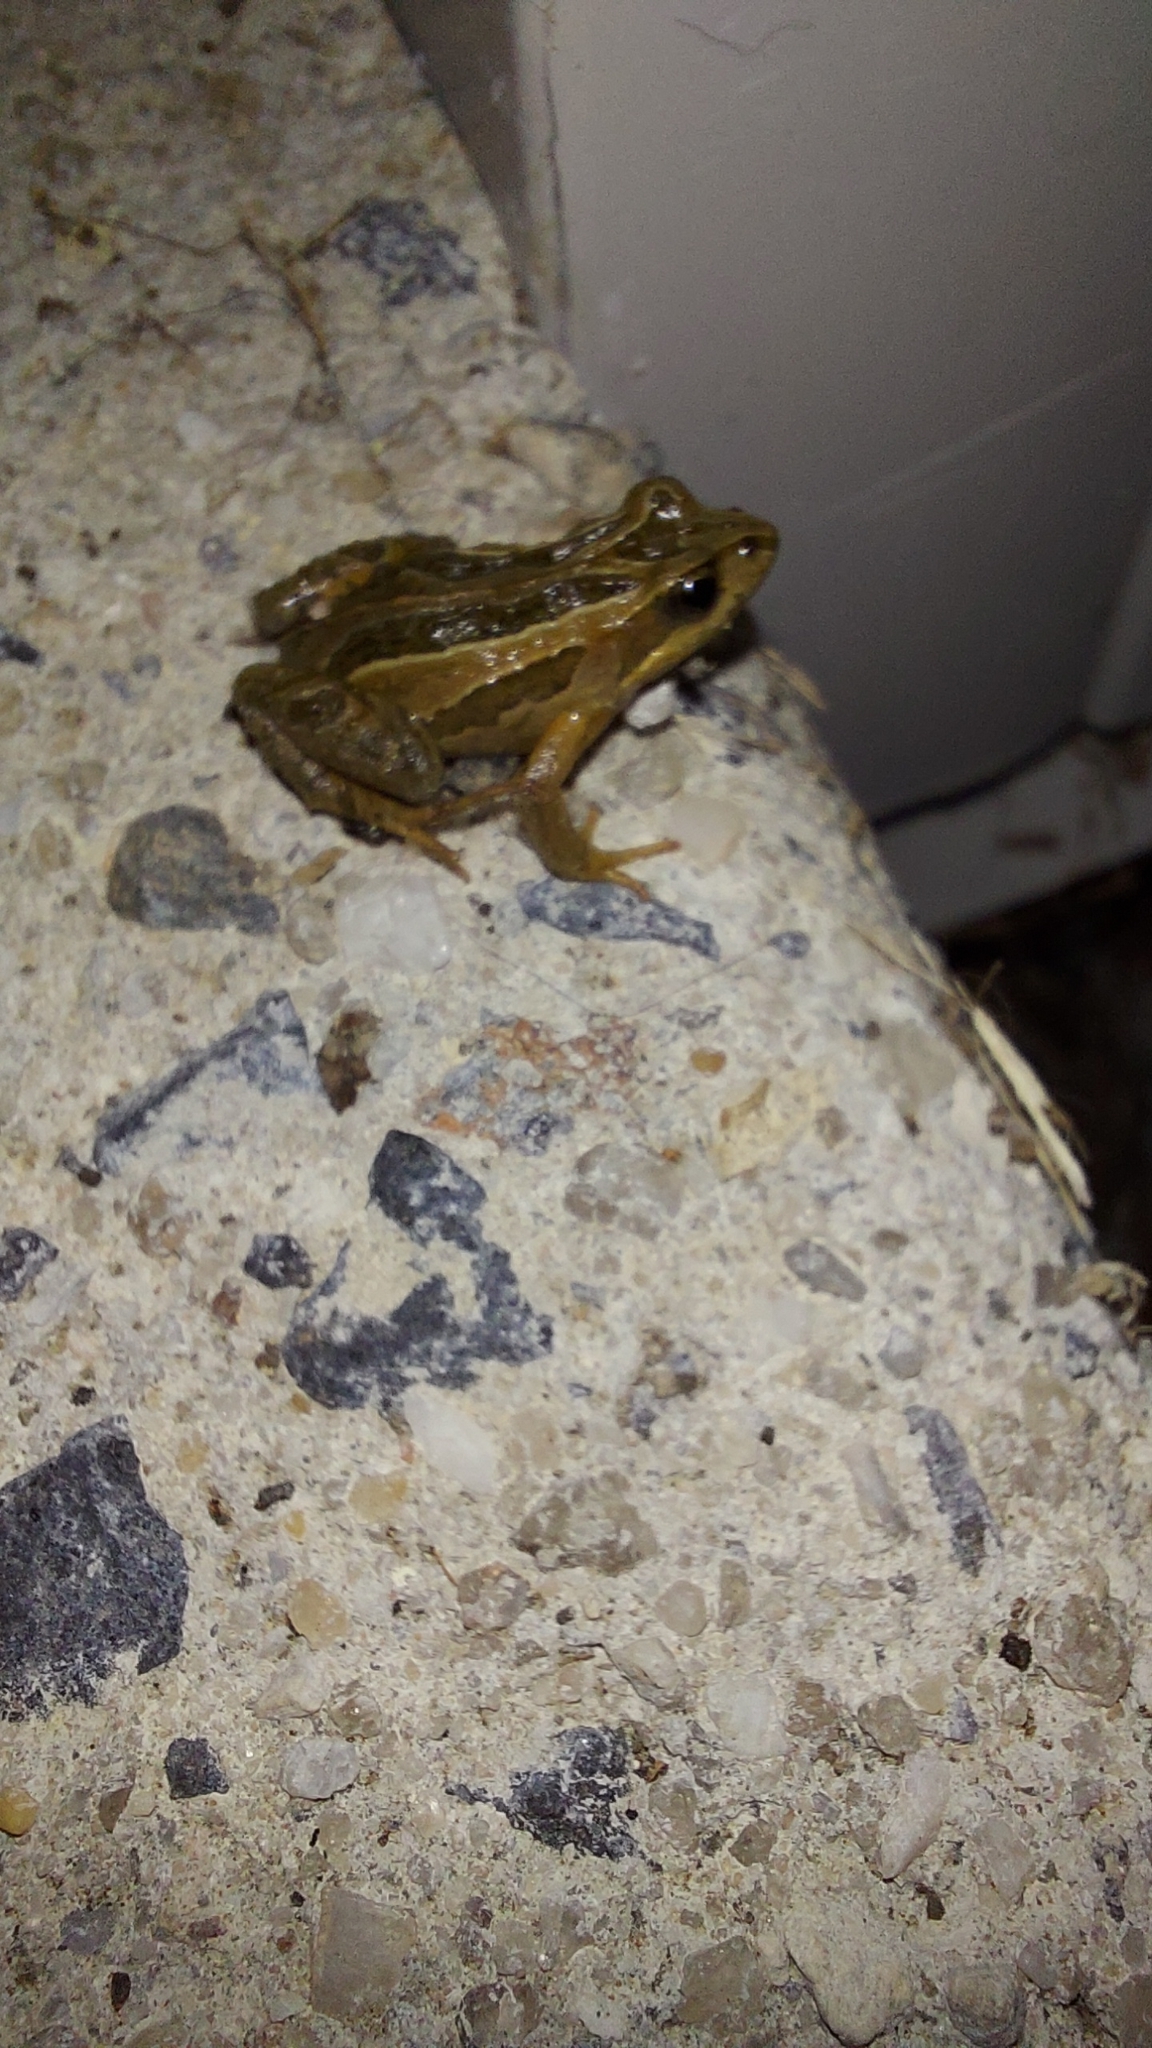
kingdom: Animalia
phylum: Chordata
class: Amphibia
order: Anura
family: Myobatrachidae
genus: Crinia
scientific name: Crinia signifera
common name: Brown froglet
